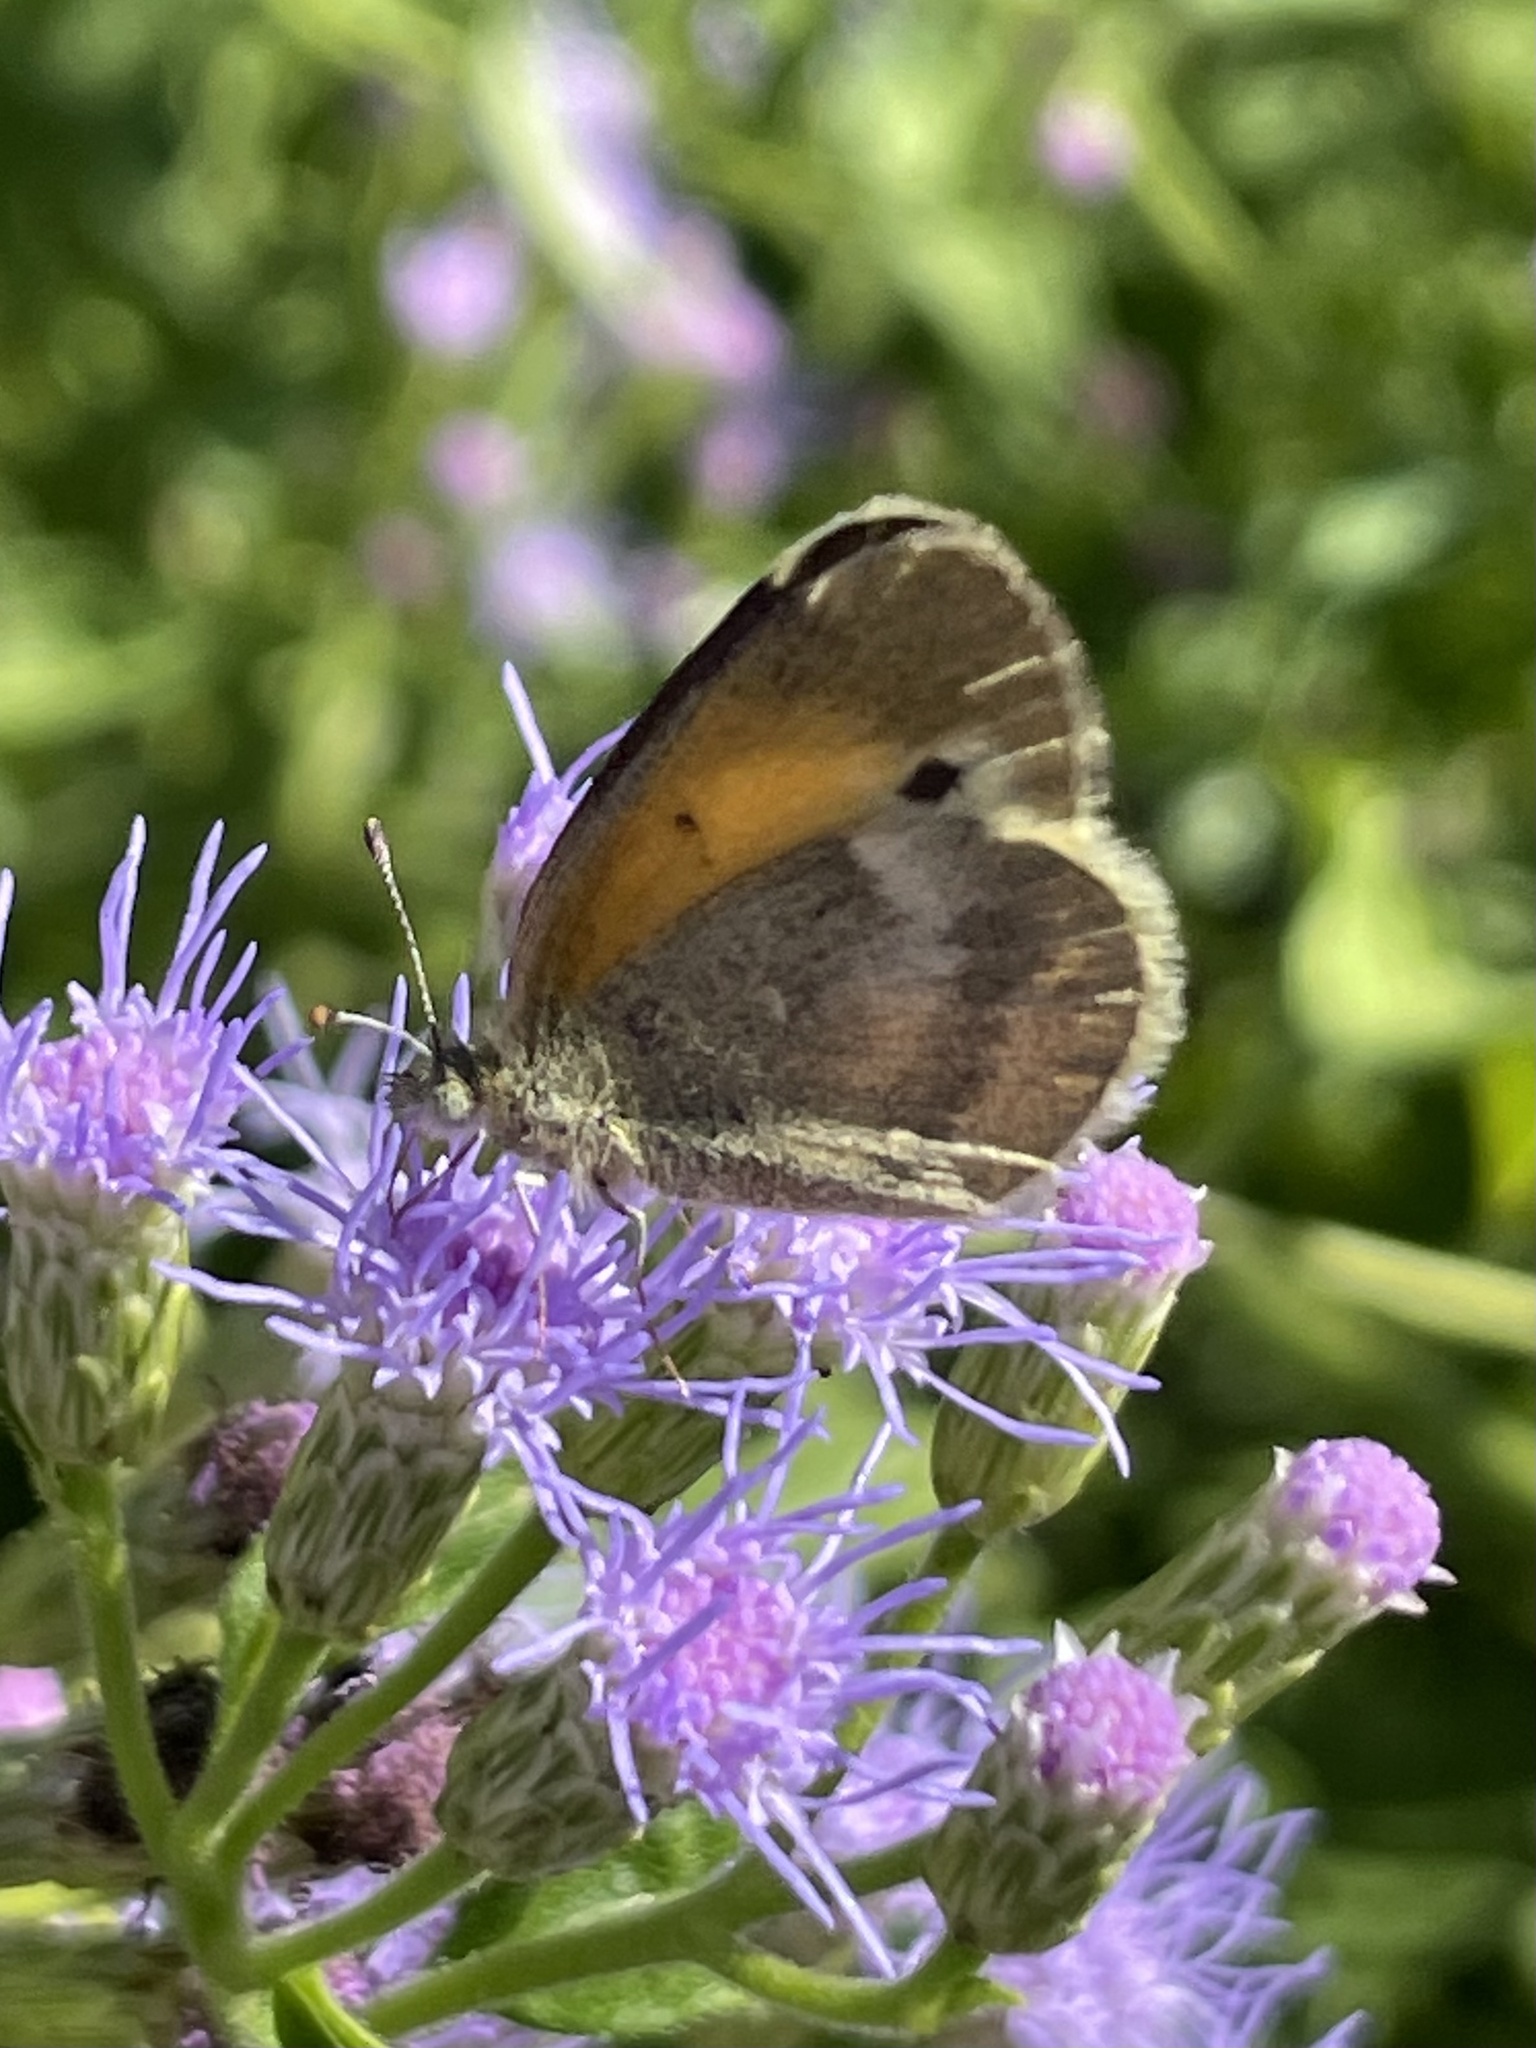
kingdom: Animalia
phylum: Arthropoda
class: Insecta
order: Lepidoptera
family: Pieridae
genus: Nathalis
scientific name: Nathalis iole
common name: Dainty sulphur
